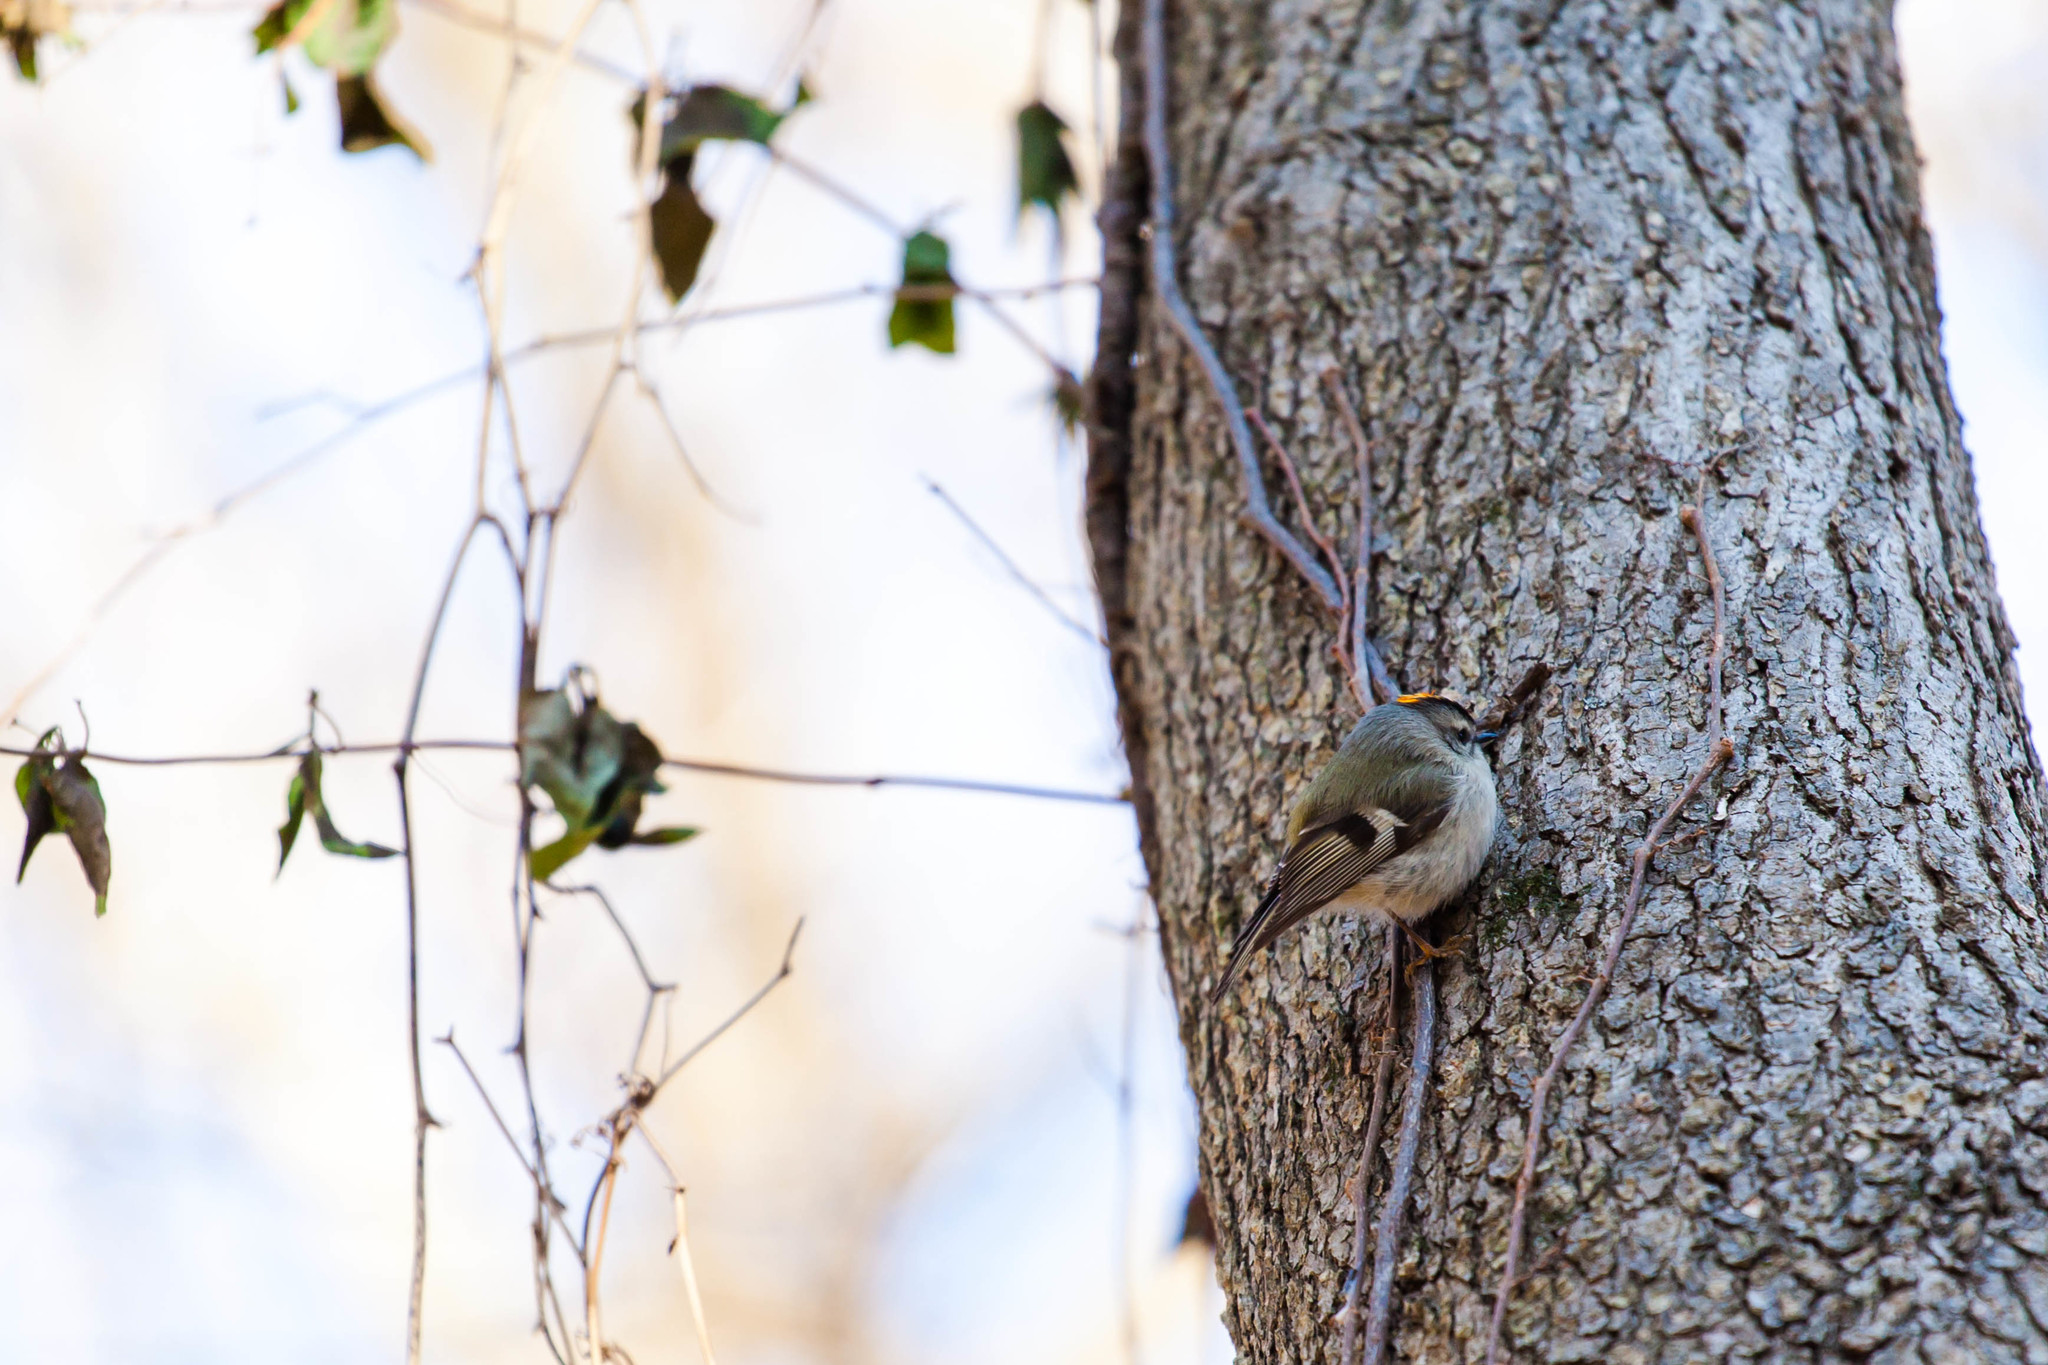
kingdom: Animalia
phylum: Chordata
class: Aves
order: Passeriformes
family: Regulidae
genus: Regulus
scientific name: Regulus satrapa
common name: Golden-crowned kinglet
